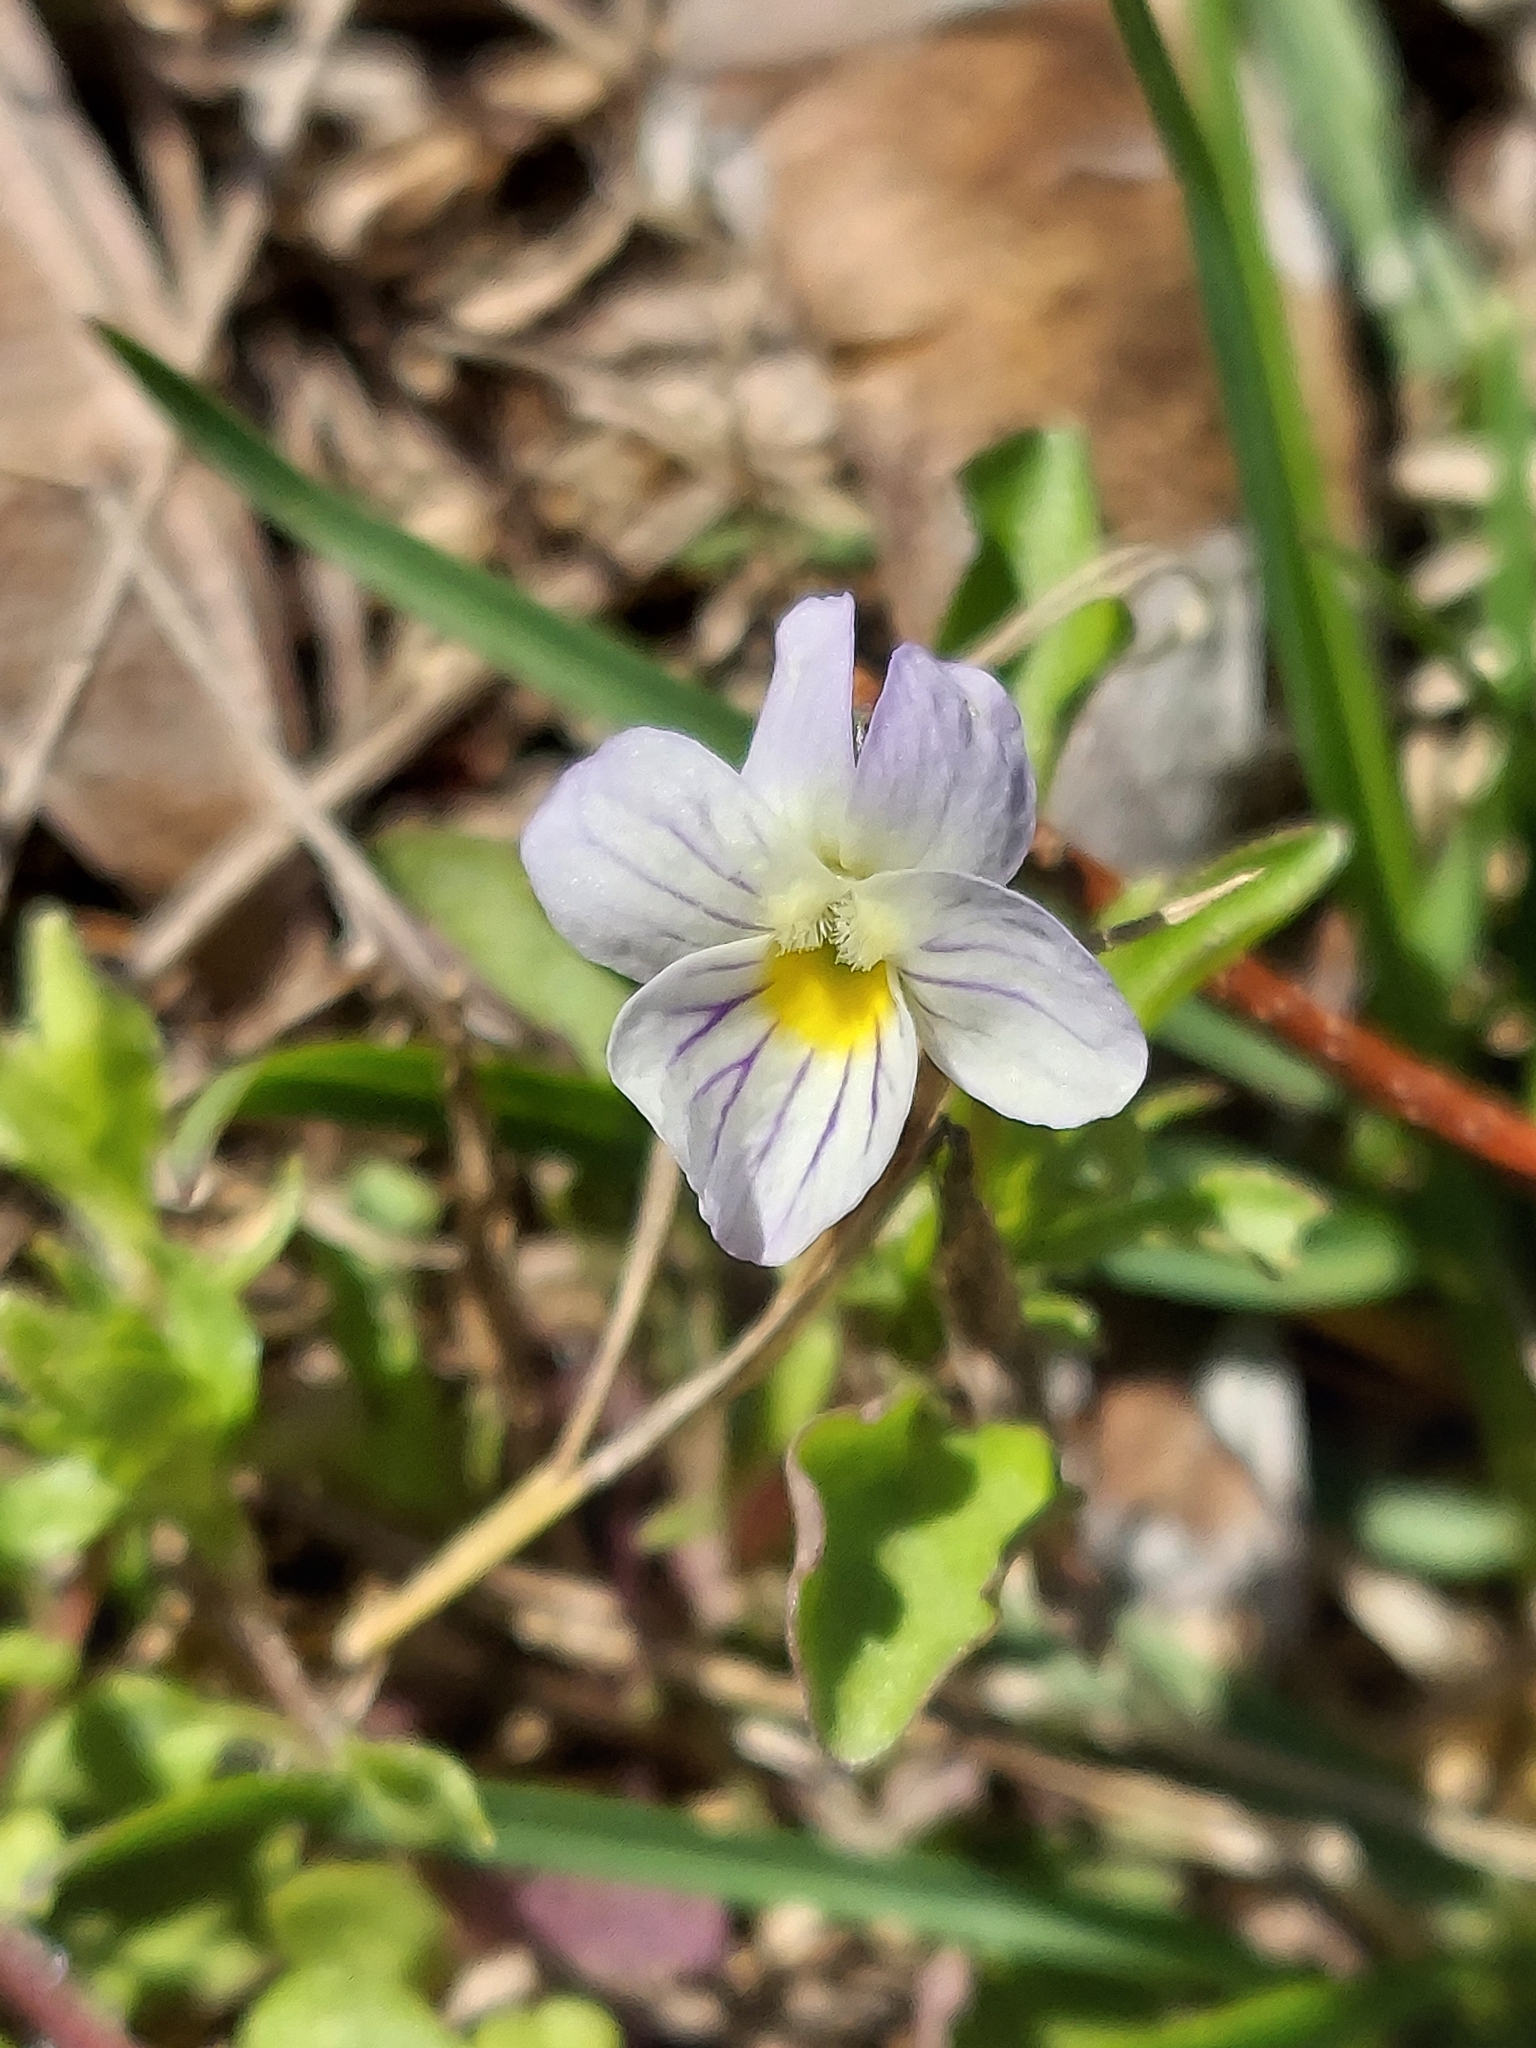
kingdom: Plantae
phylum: Tracheophyta
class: Magnoliopsida
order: Malpighiales
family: Violaceae
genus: Viola
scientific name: Viola rafinesquei
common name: American field pansy
